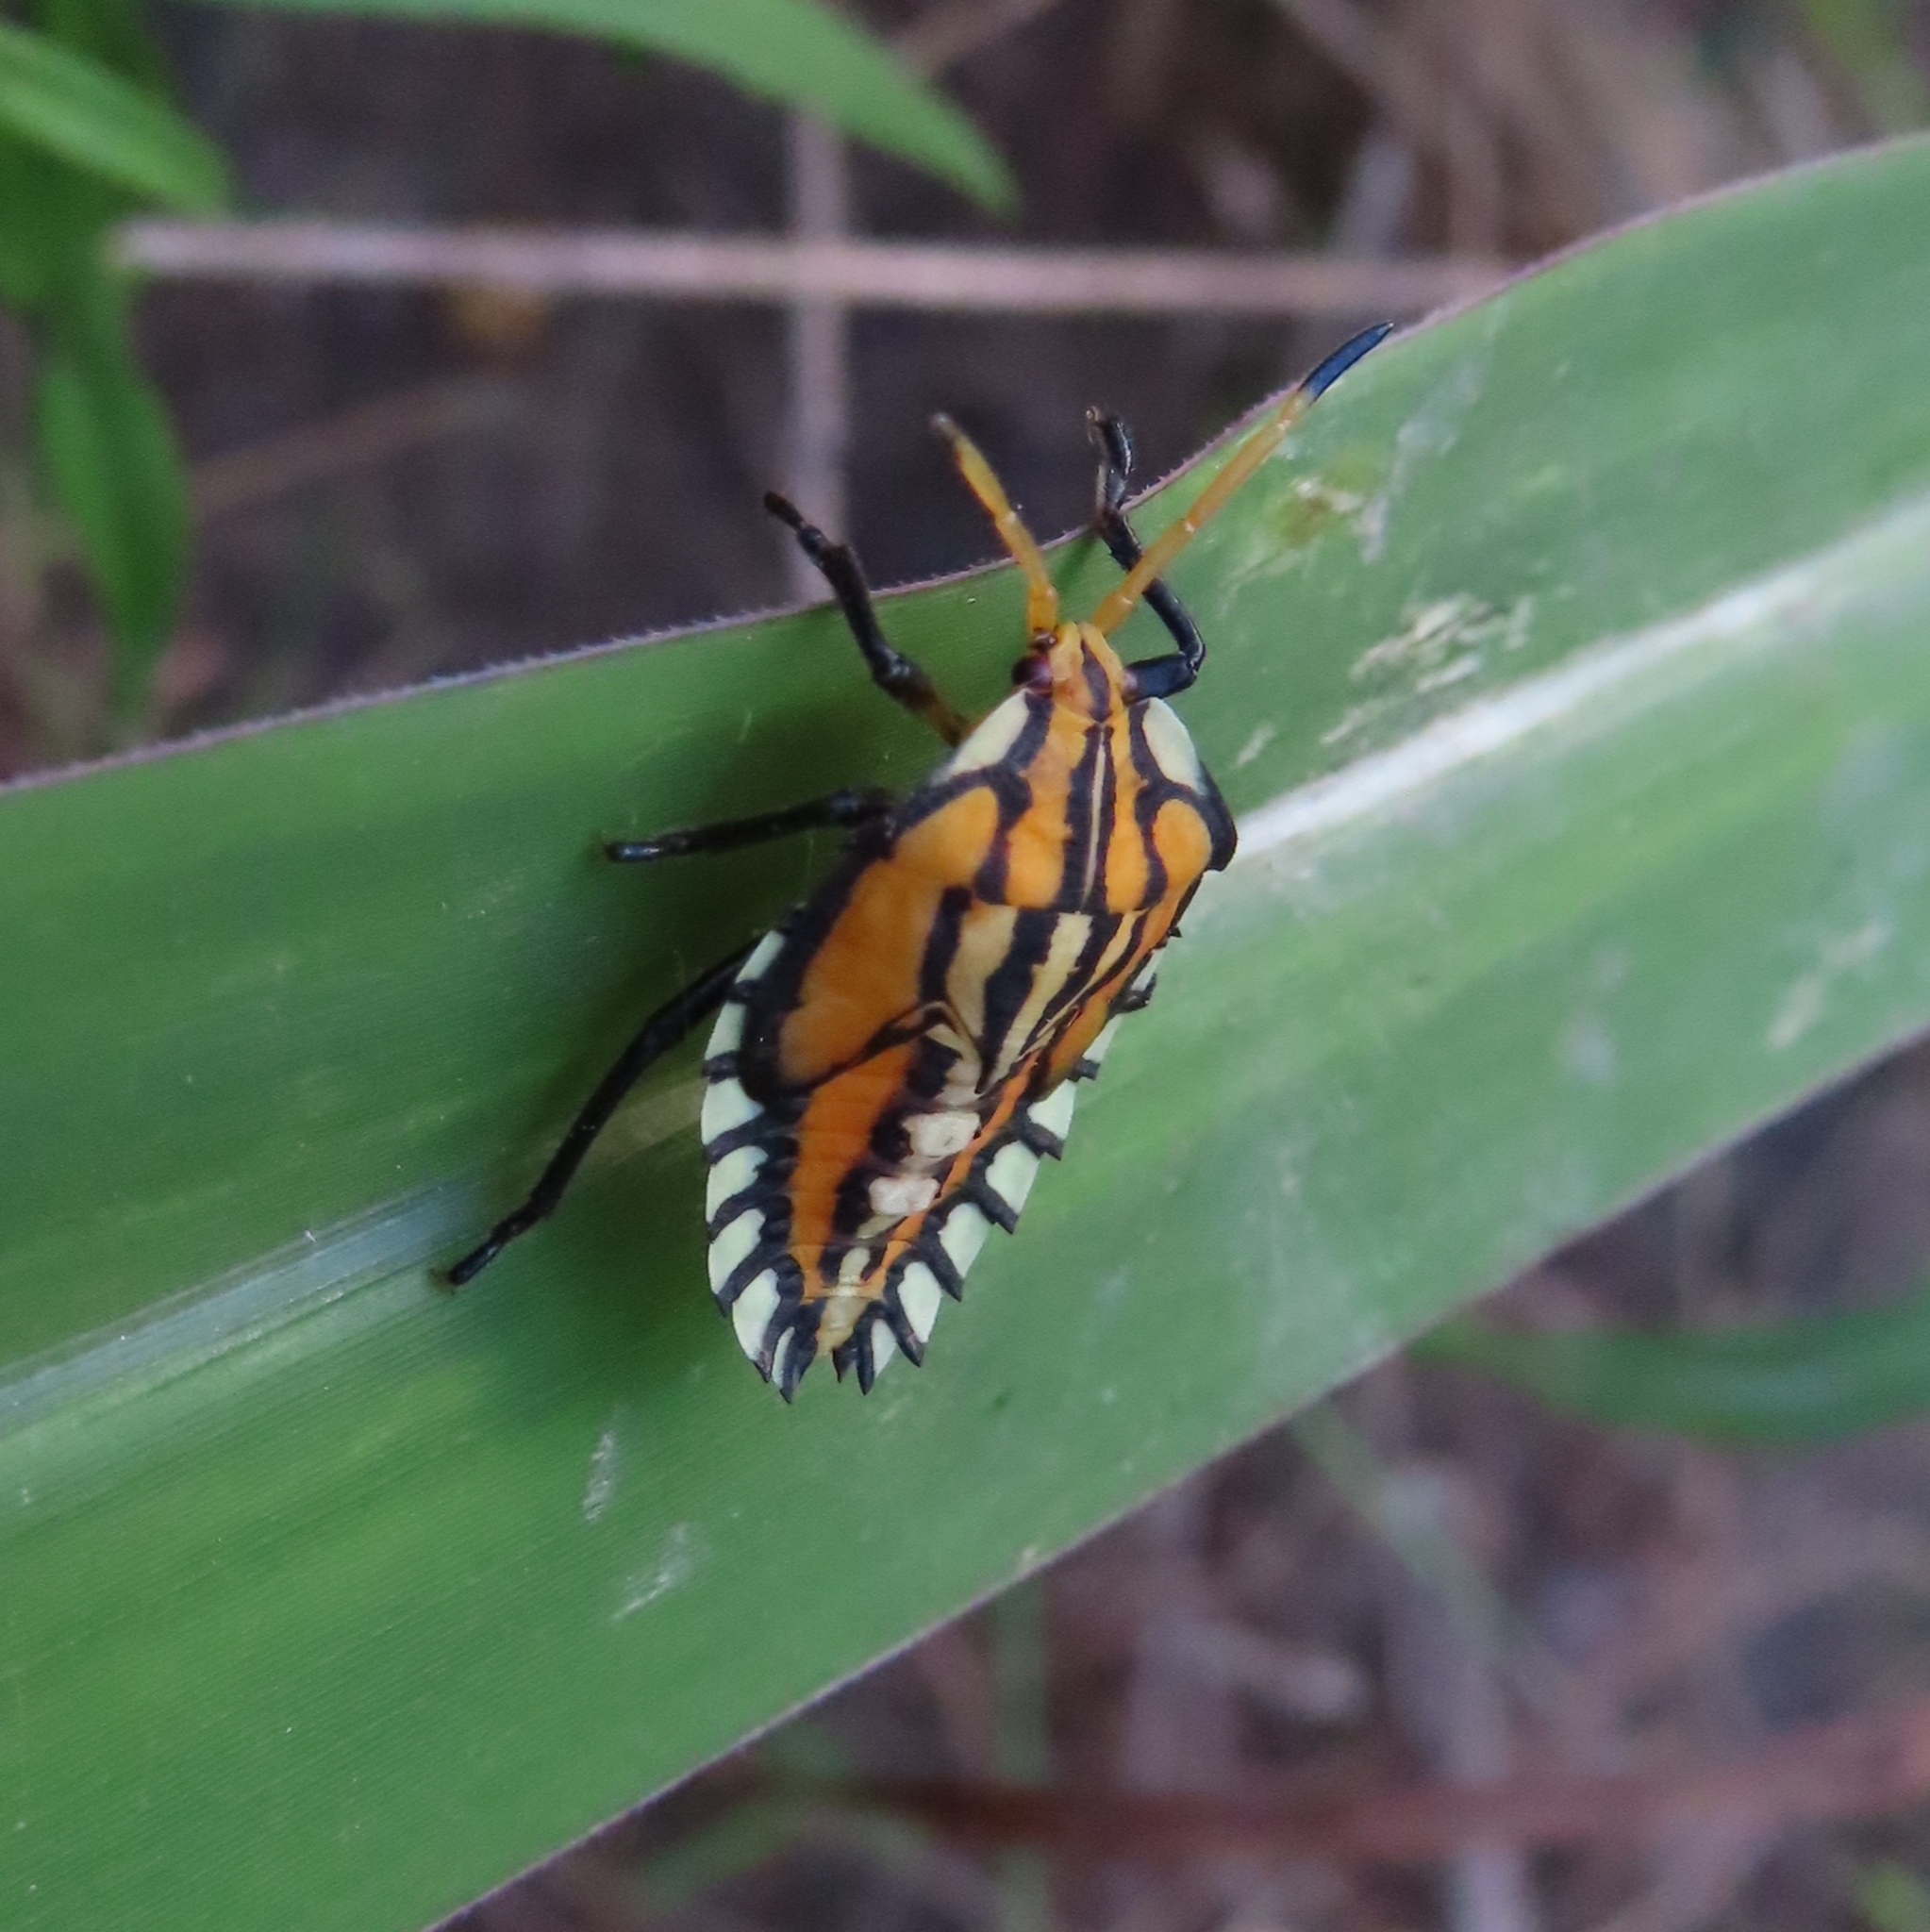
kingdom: Animalia
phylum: Arthropoda
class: Insecta
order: Hemiptera
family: Tessaratomidae
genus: Piezosternum
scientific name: Piezosternum subulatum
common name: Paula's giant shield bug
